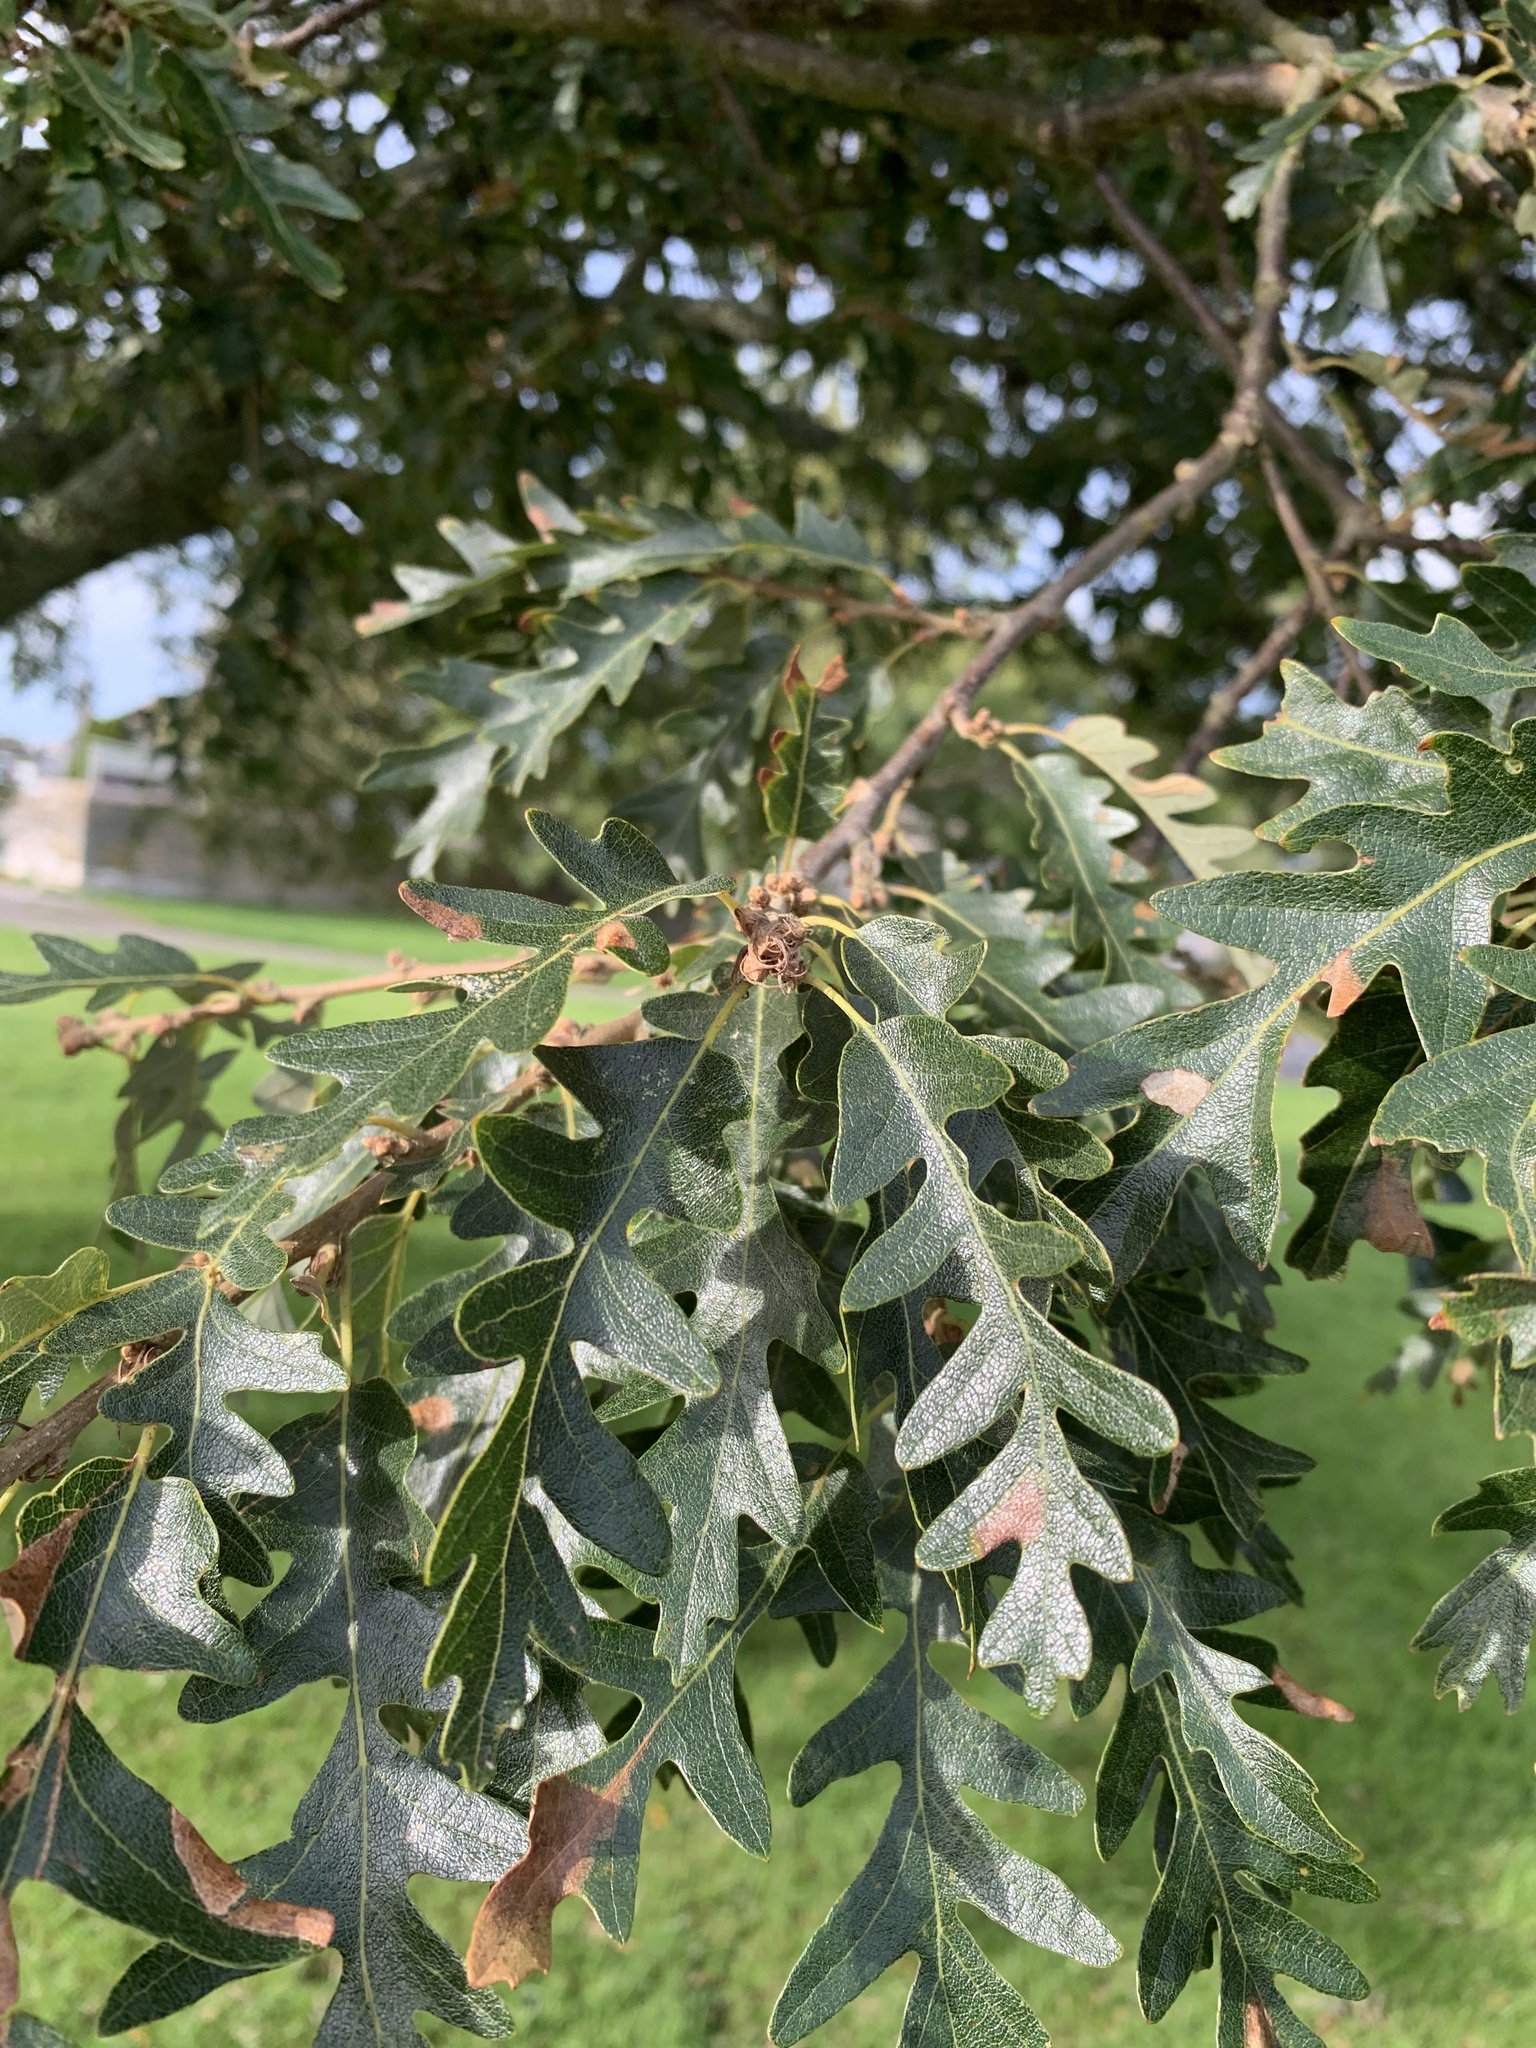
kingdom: Plantae
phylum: Tracheophyta
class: Magnoliopsida
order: Fagales
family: Fagaceae
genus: Quercus
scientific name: Quercus cerris
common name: Turkey oak
